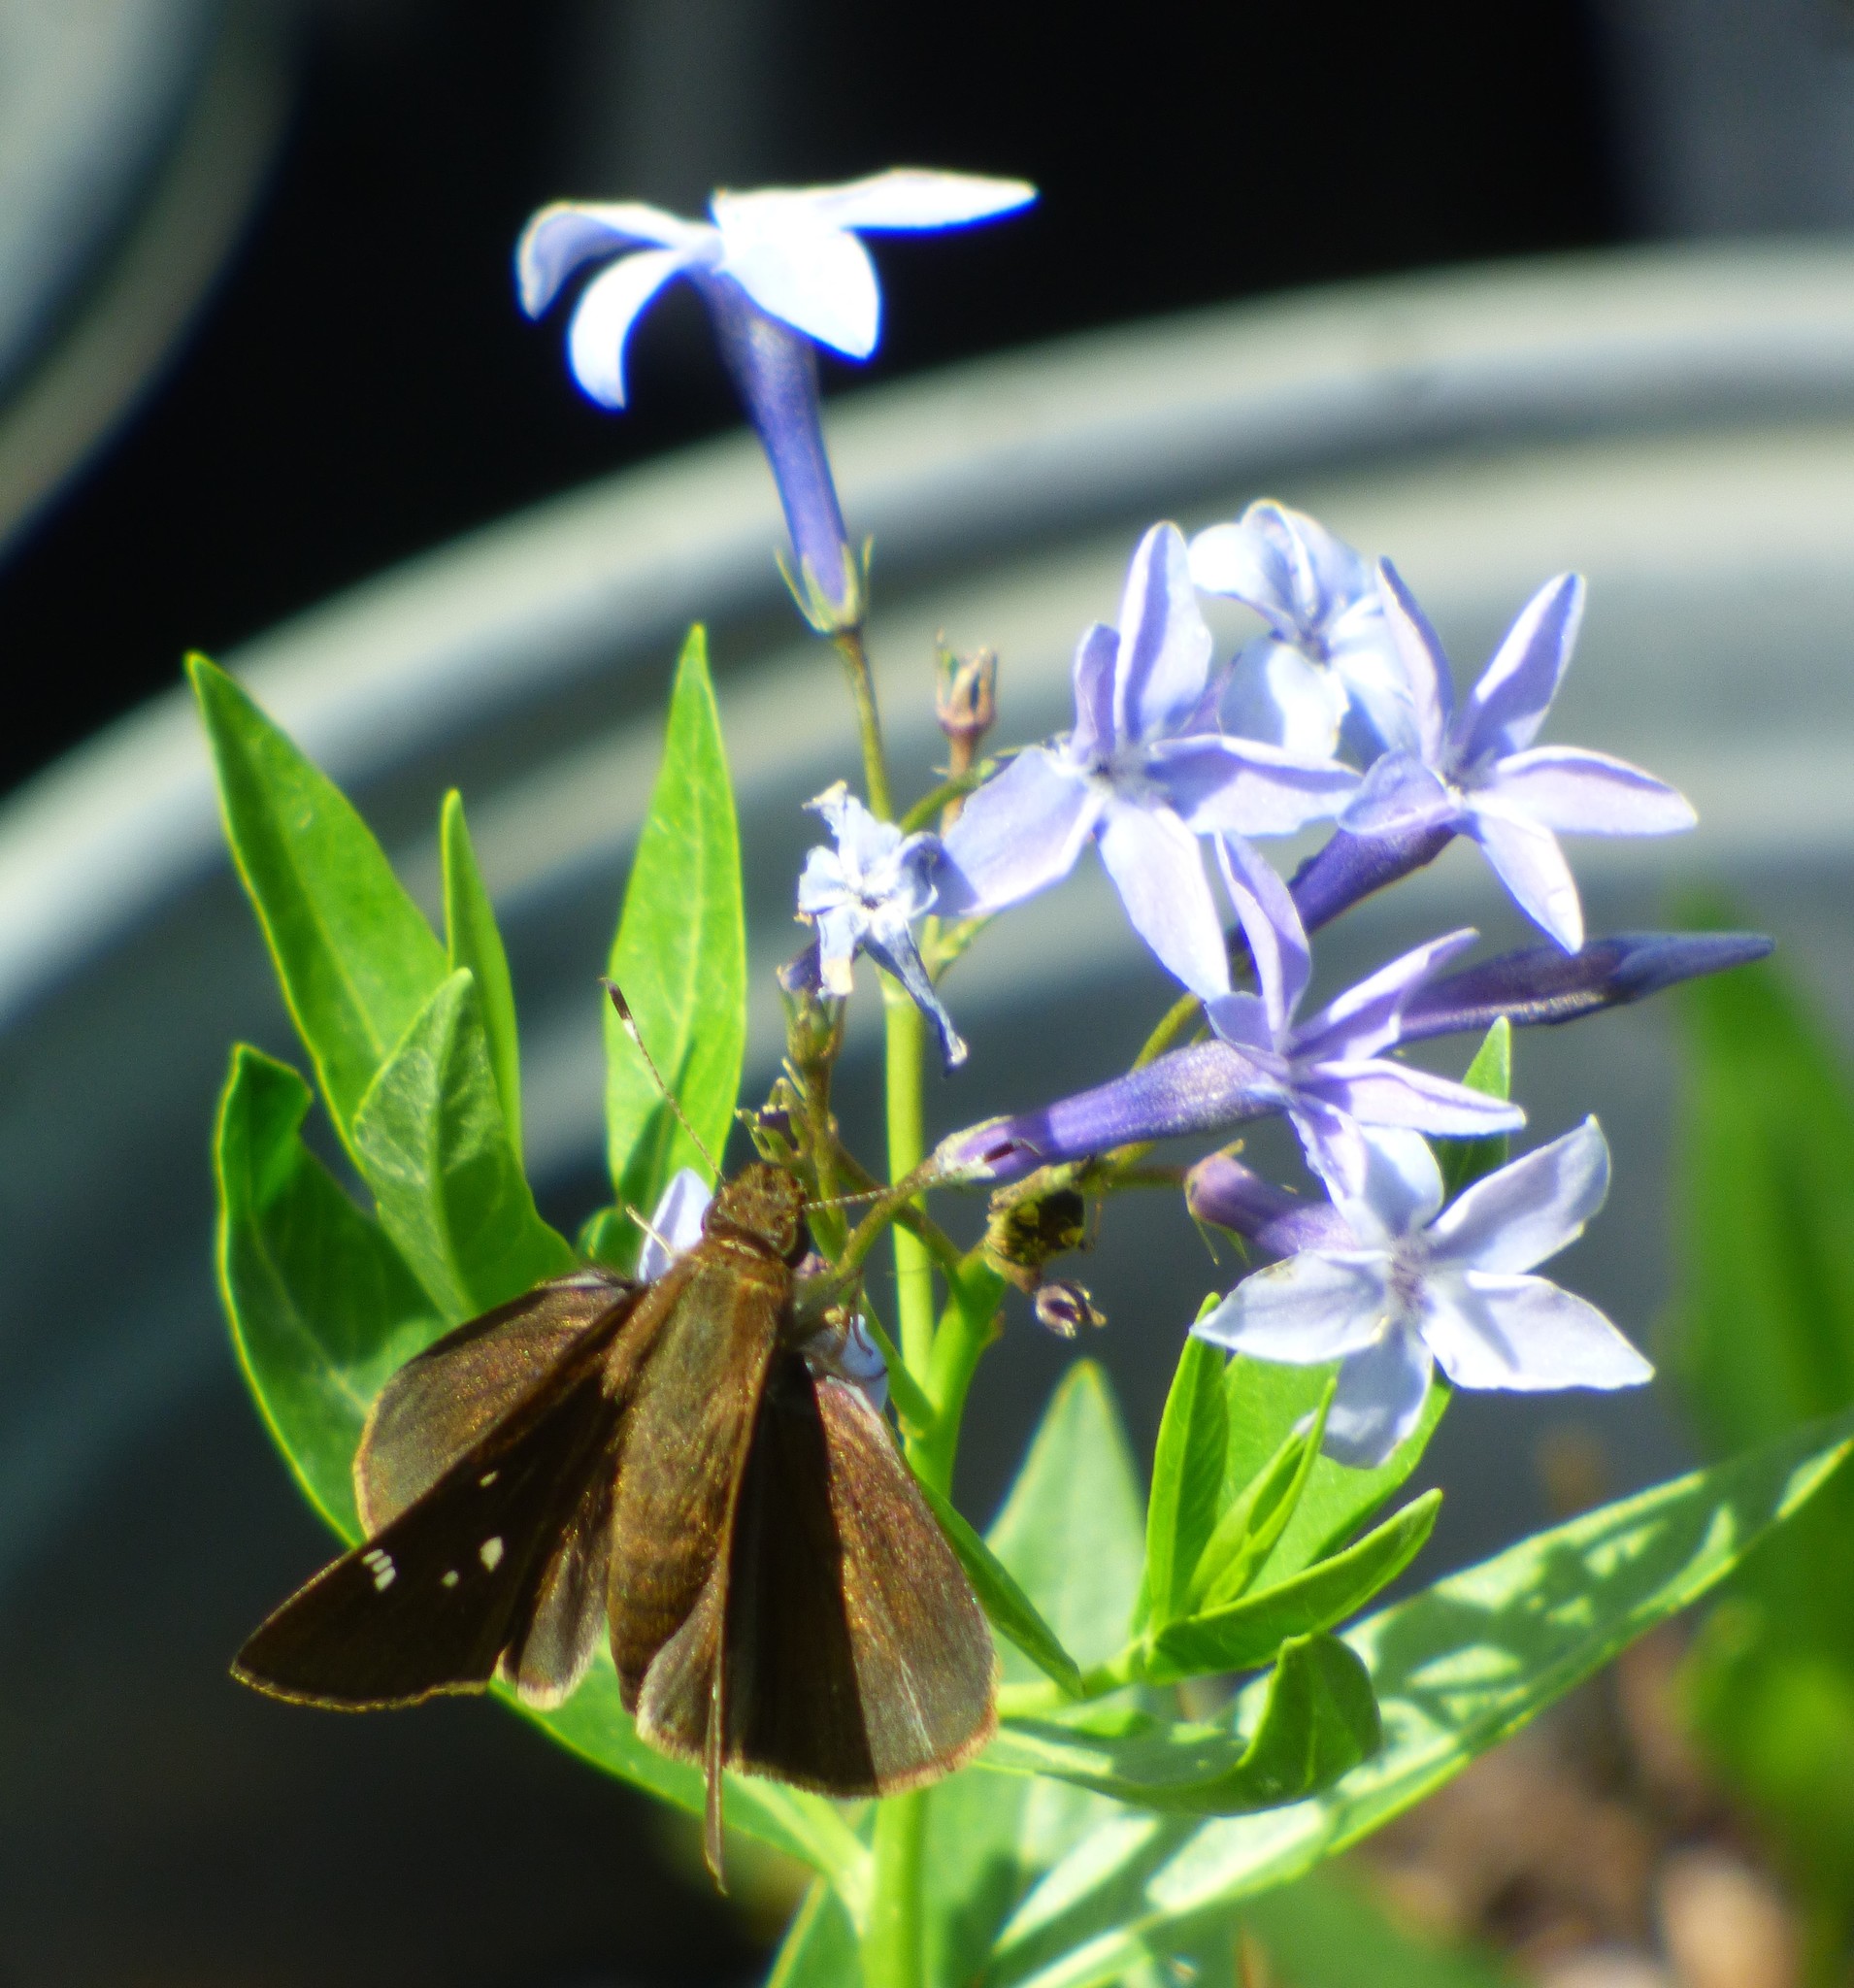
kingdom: Animalia
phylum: Arthropoda
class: Insecta
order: Lepidoptera
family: Hesperiidae
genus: Lerema
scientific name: Lerema accius
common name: Clouded skipper
